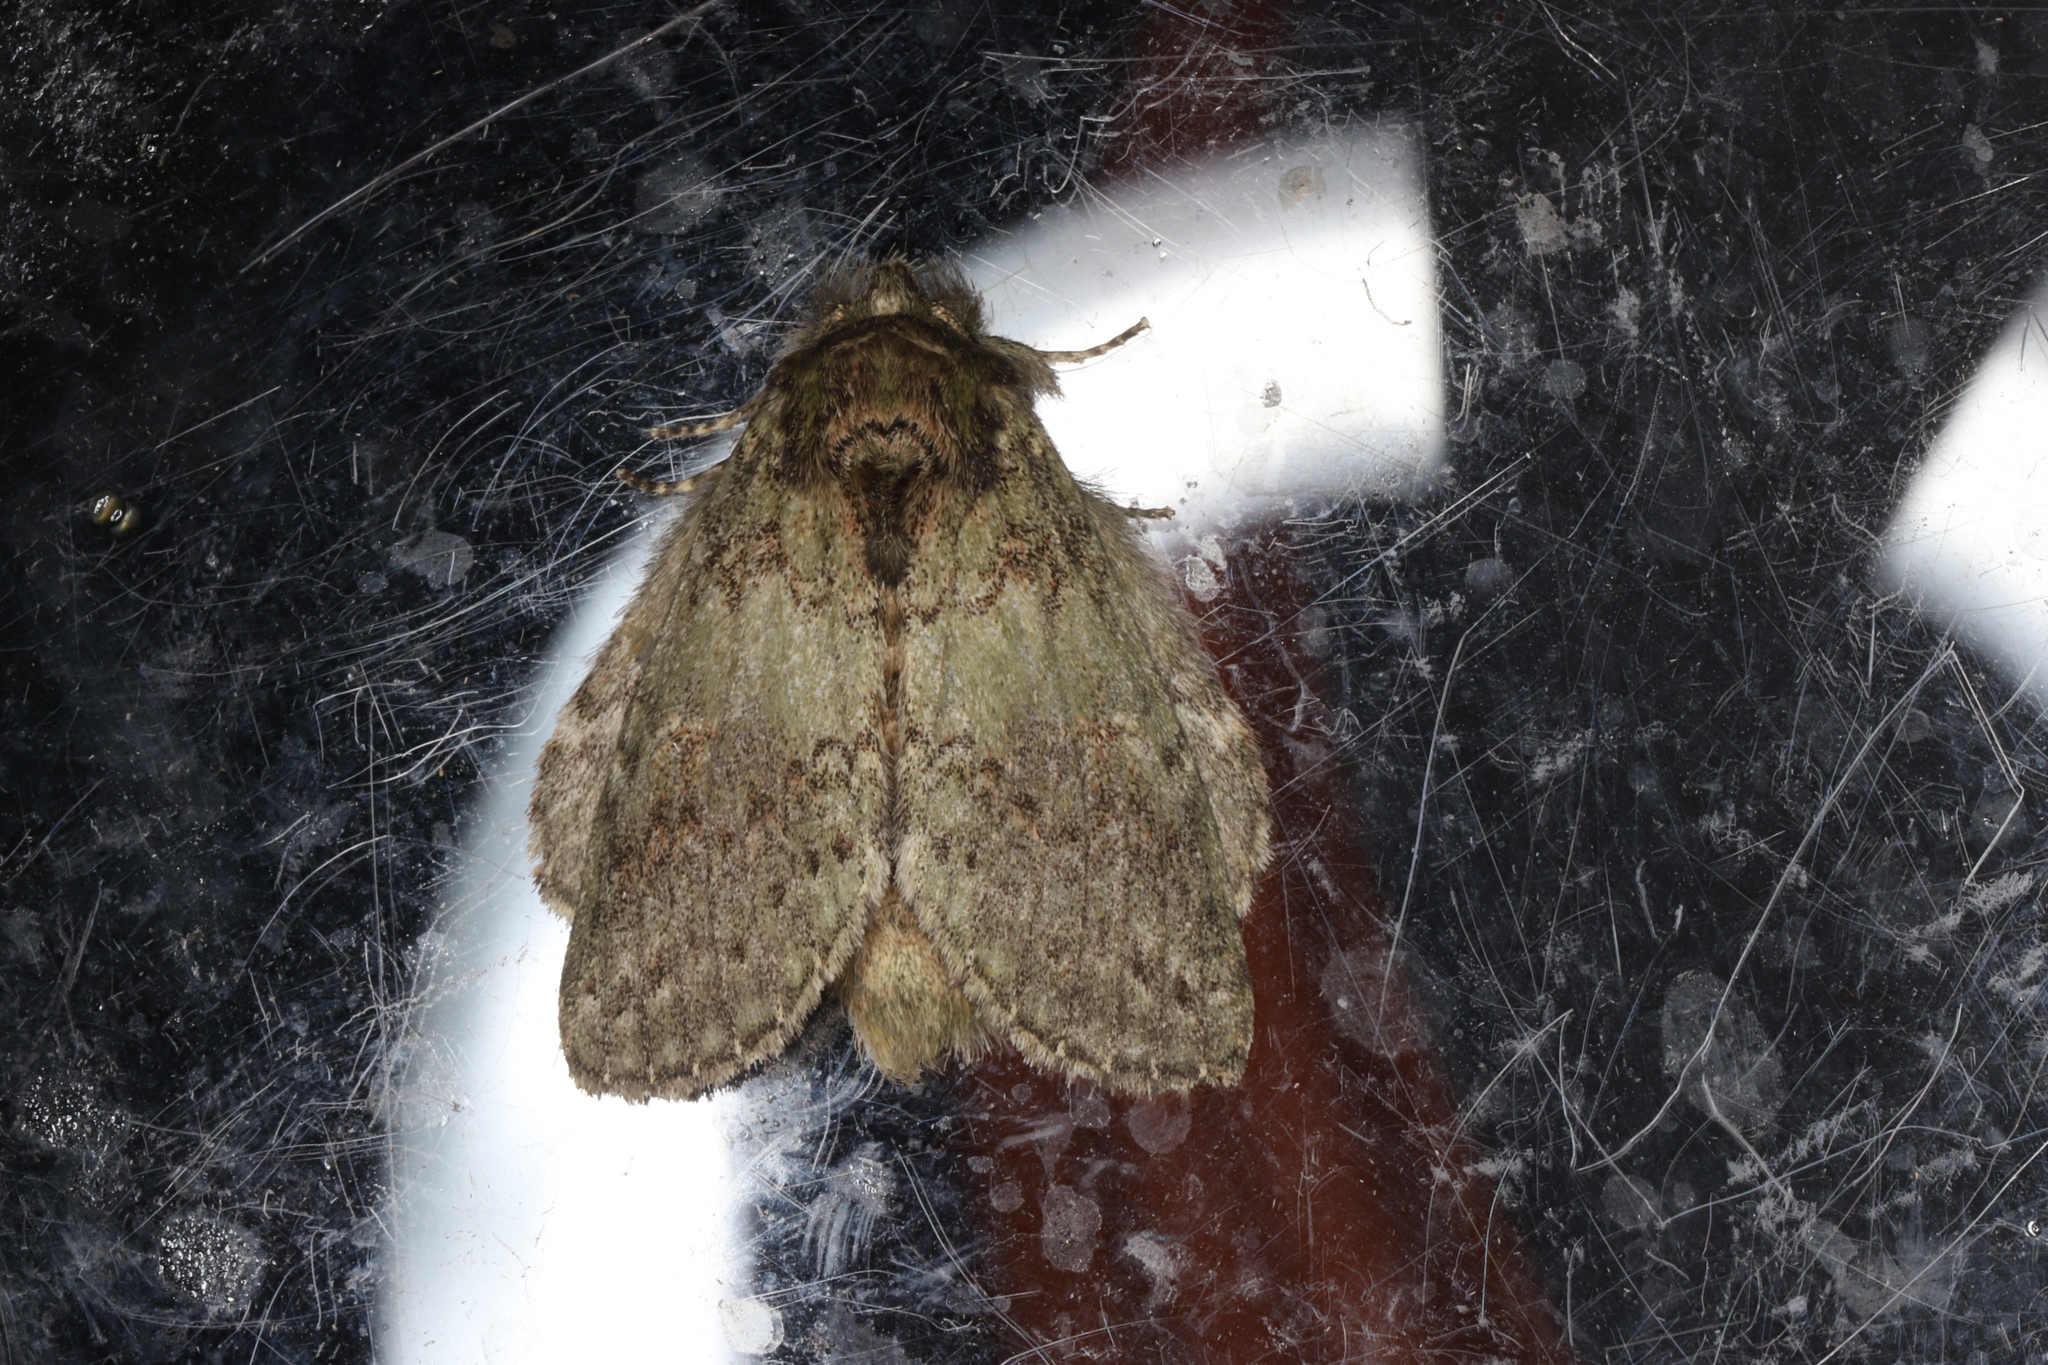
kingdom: Animalia
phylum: Arthropoda
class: Insecta
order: Lepidoptera
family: Notodontidae
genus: Disphragis
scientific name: Disphragis Cecrita biundata
